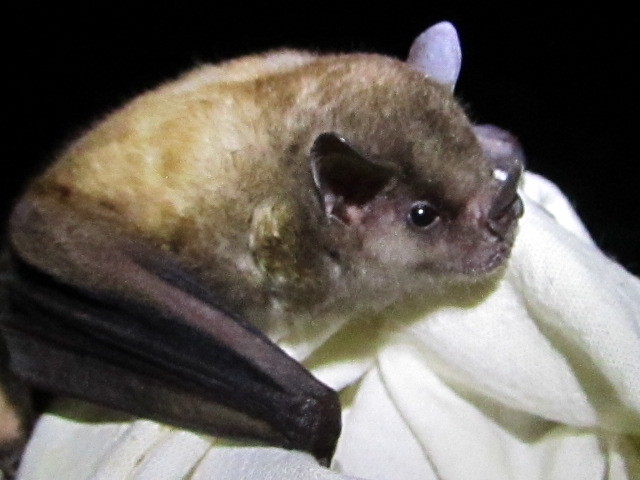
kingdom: Animalia
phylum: Chordata
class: Mammalia
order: Chiroptera
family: Phyllostomidae
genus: Sturnira
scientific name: Sturnira hondurensis
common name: Honduran yellow-shouldered bat
